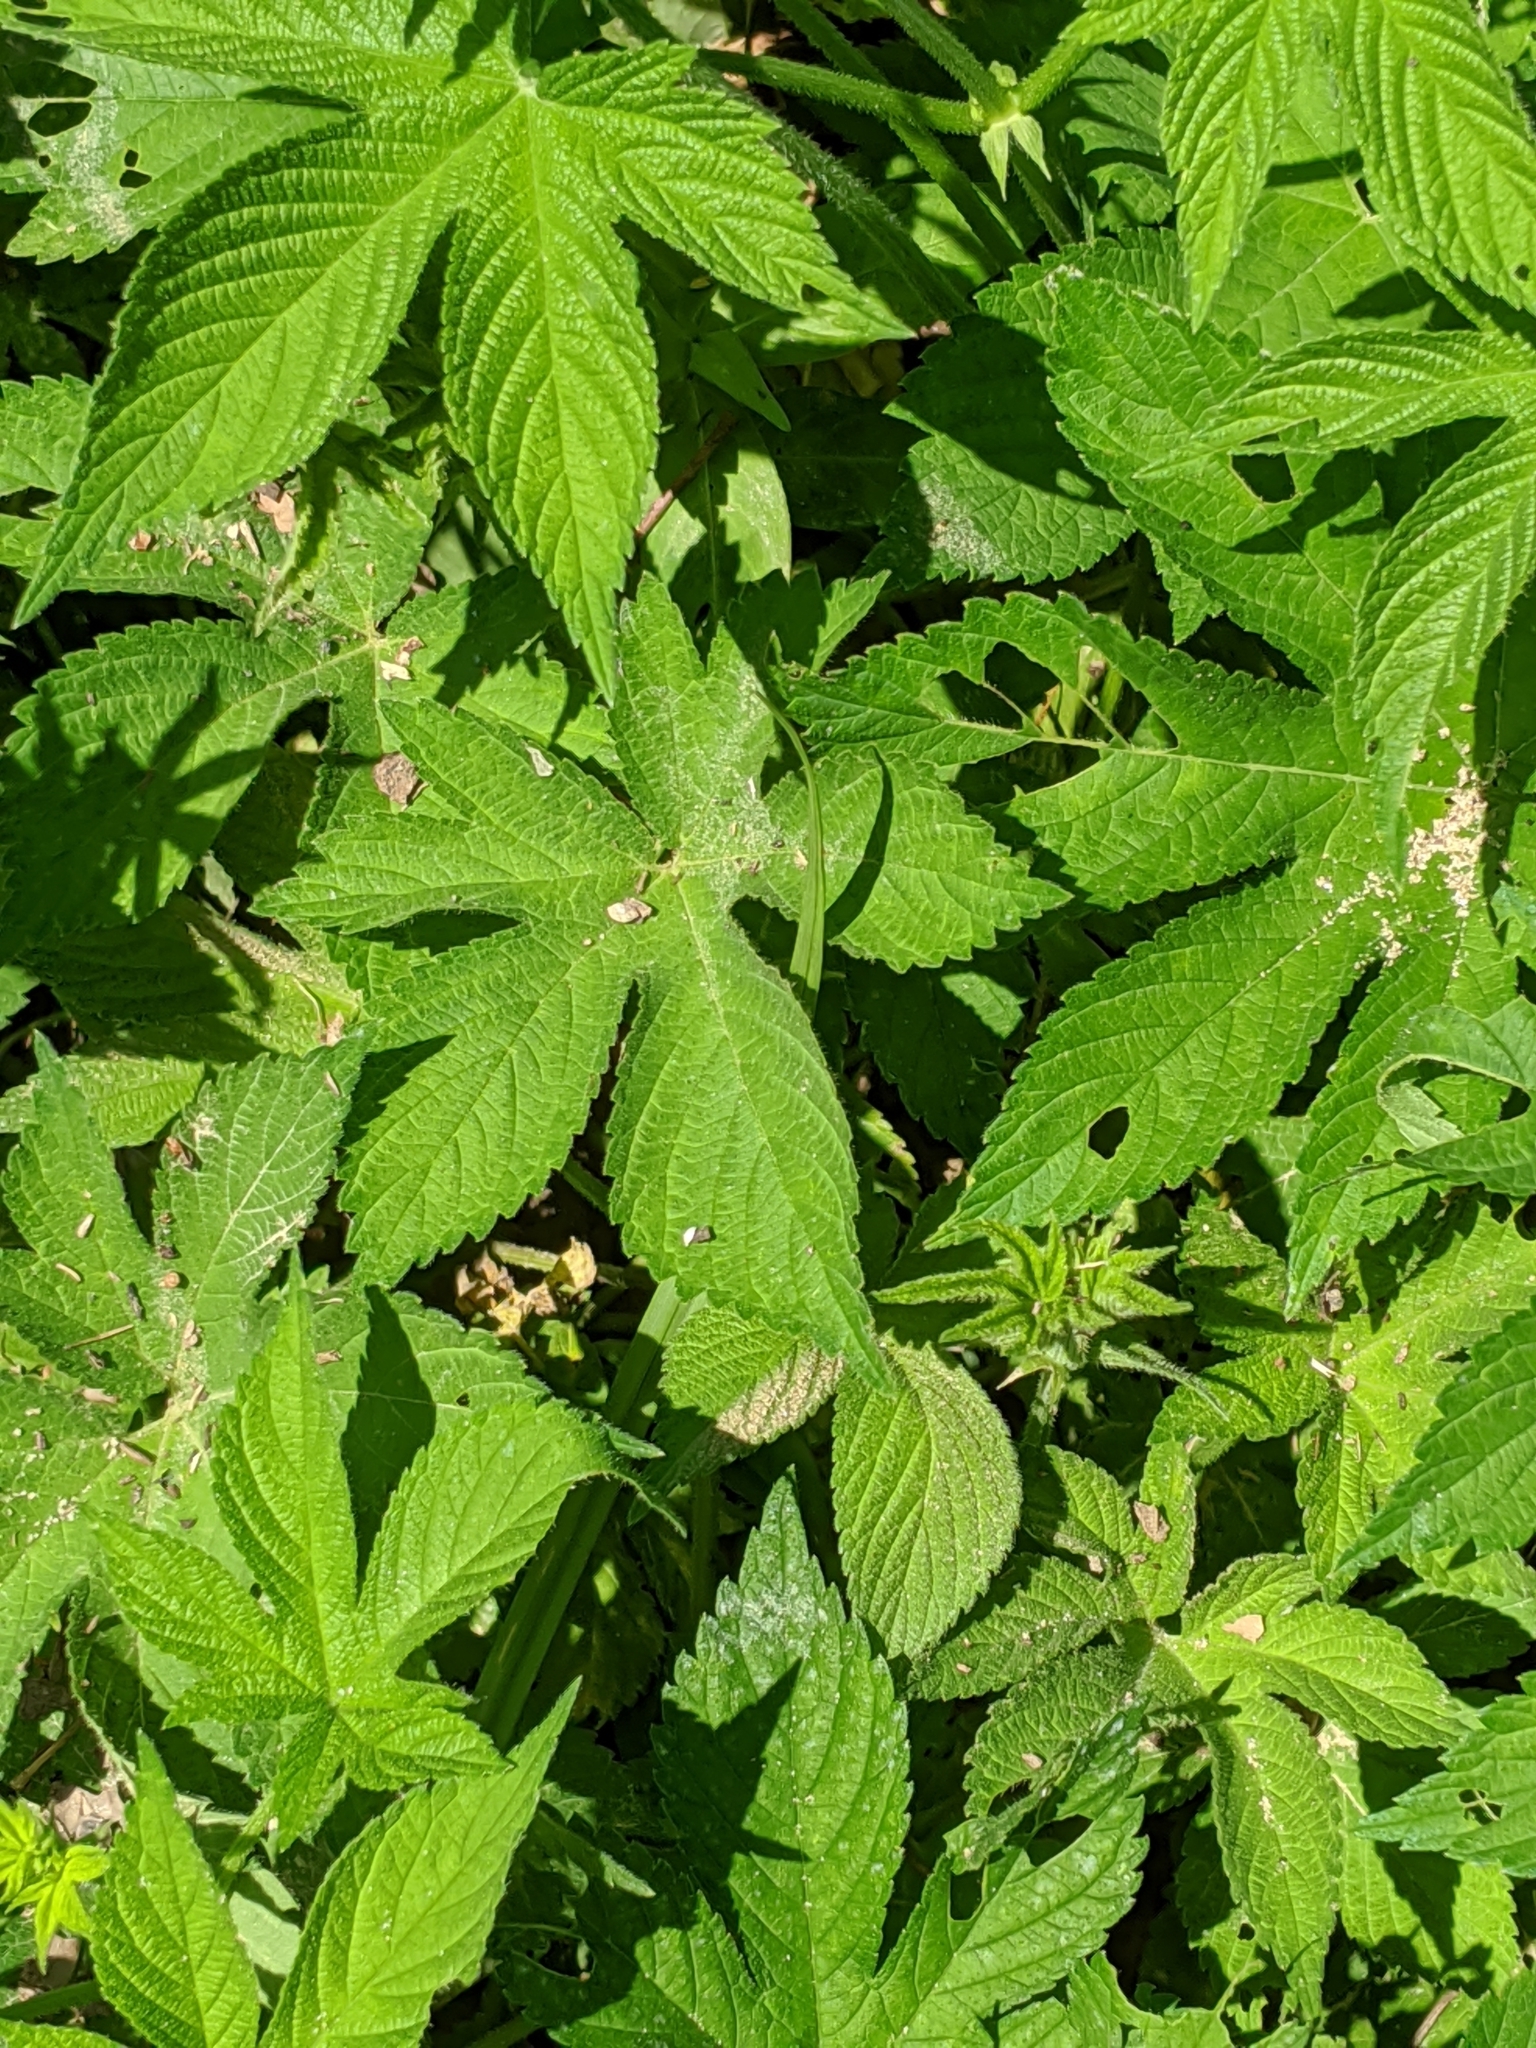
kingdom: Plantae
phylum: Tracheophyta
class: Magnoliopsida
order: Rosales
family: Cannabaceae
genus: Humulus
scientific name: Humulus scandens
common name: Japanese hop
